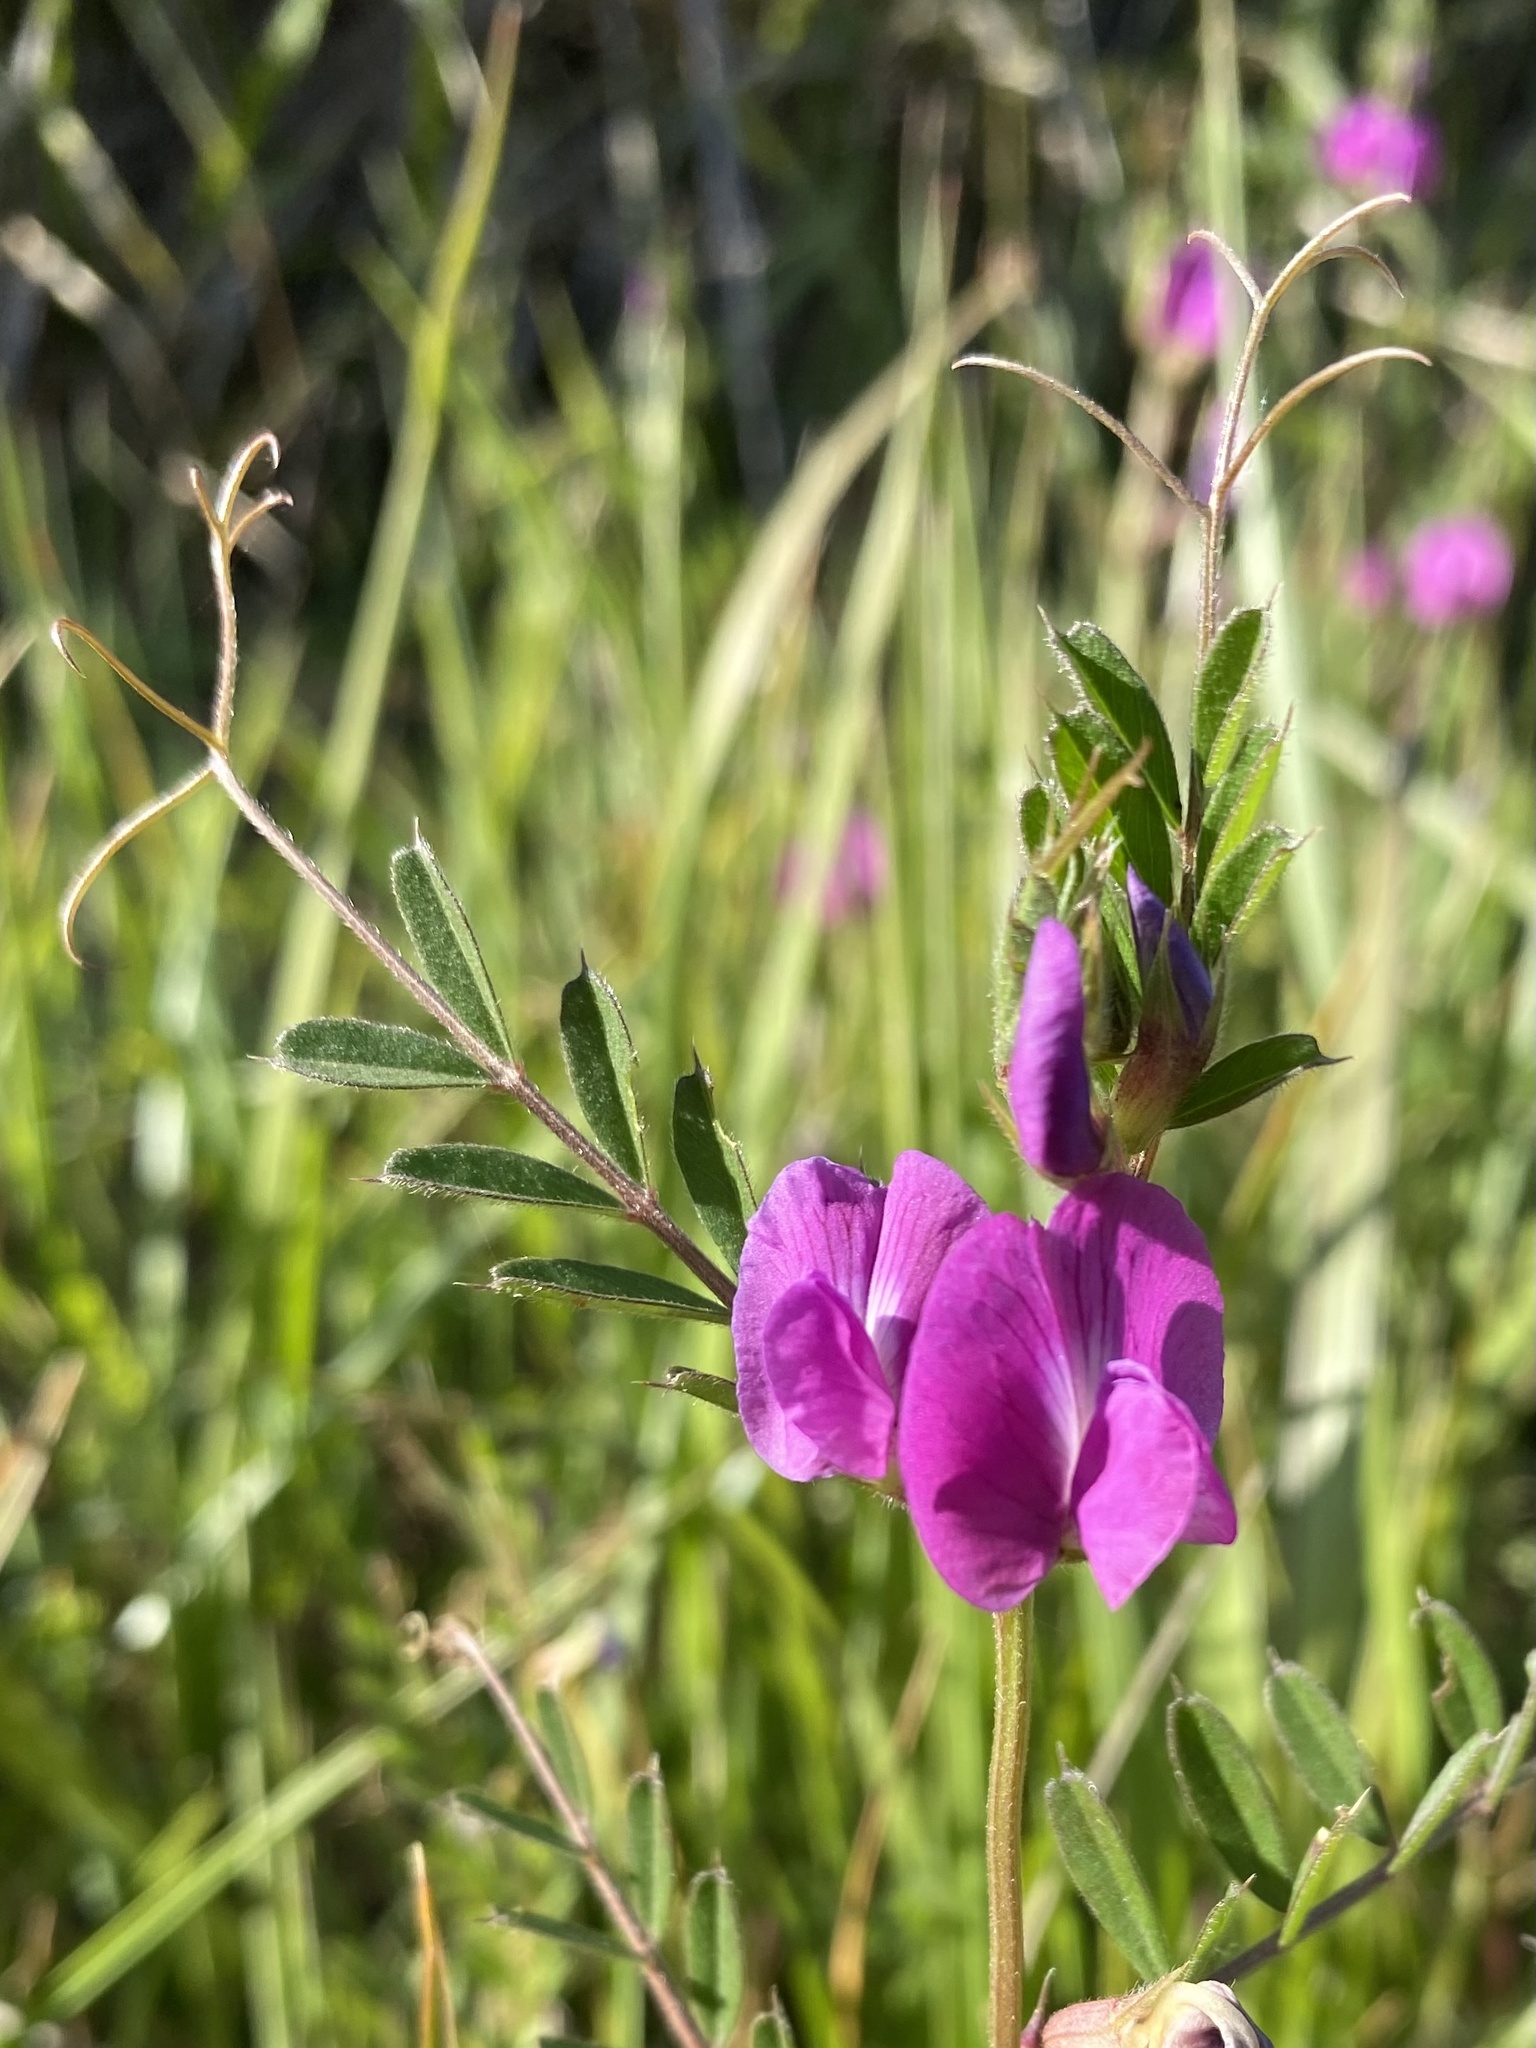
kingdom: Plantae
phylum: Tracheophyta
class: Magnoliopsida
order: Fabales
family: Fabaceae
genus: Vicia
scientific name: Vicia sativa
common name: Garden vetch
